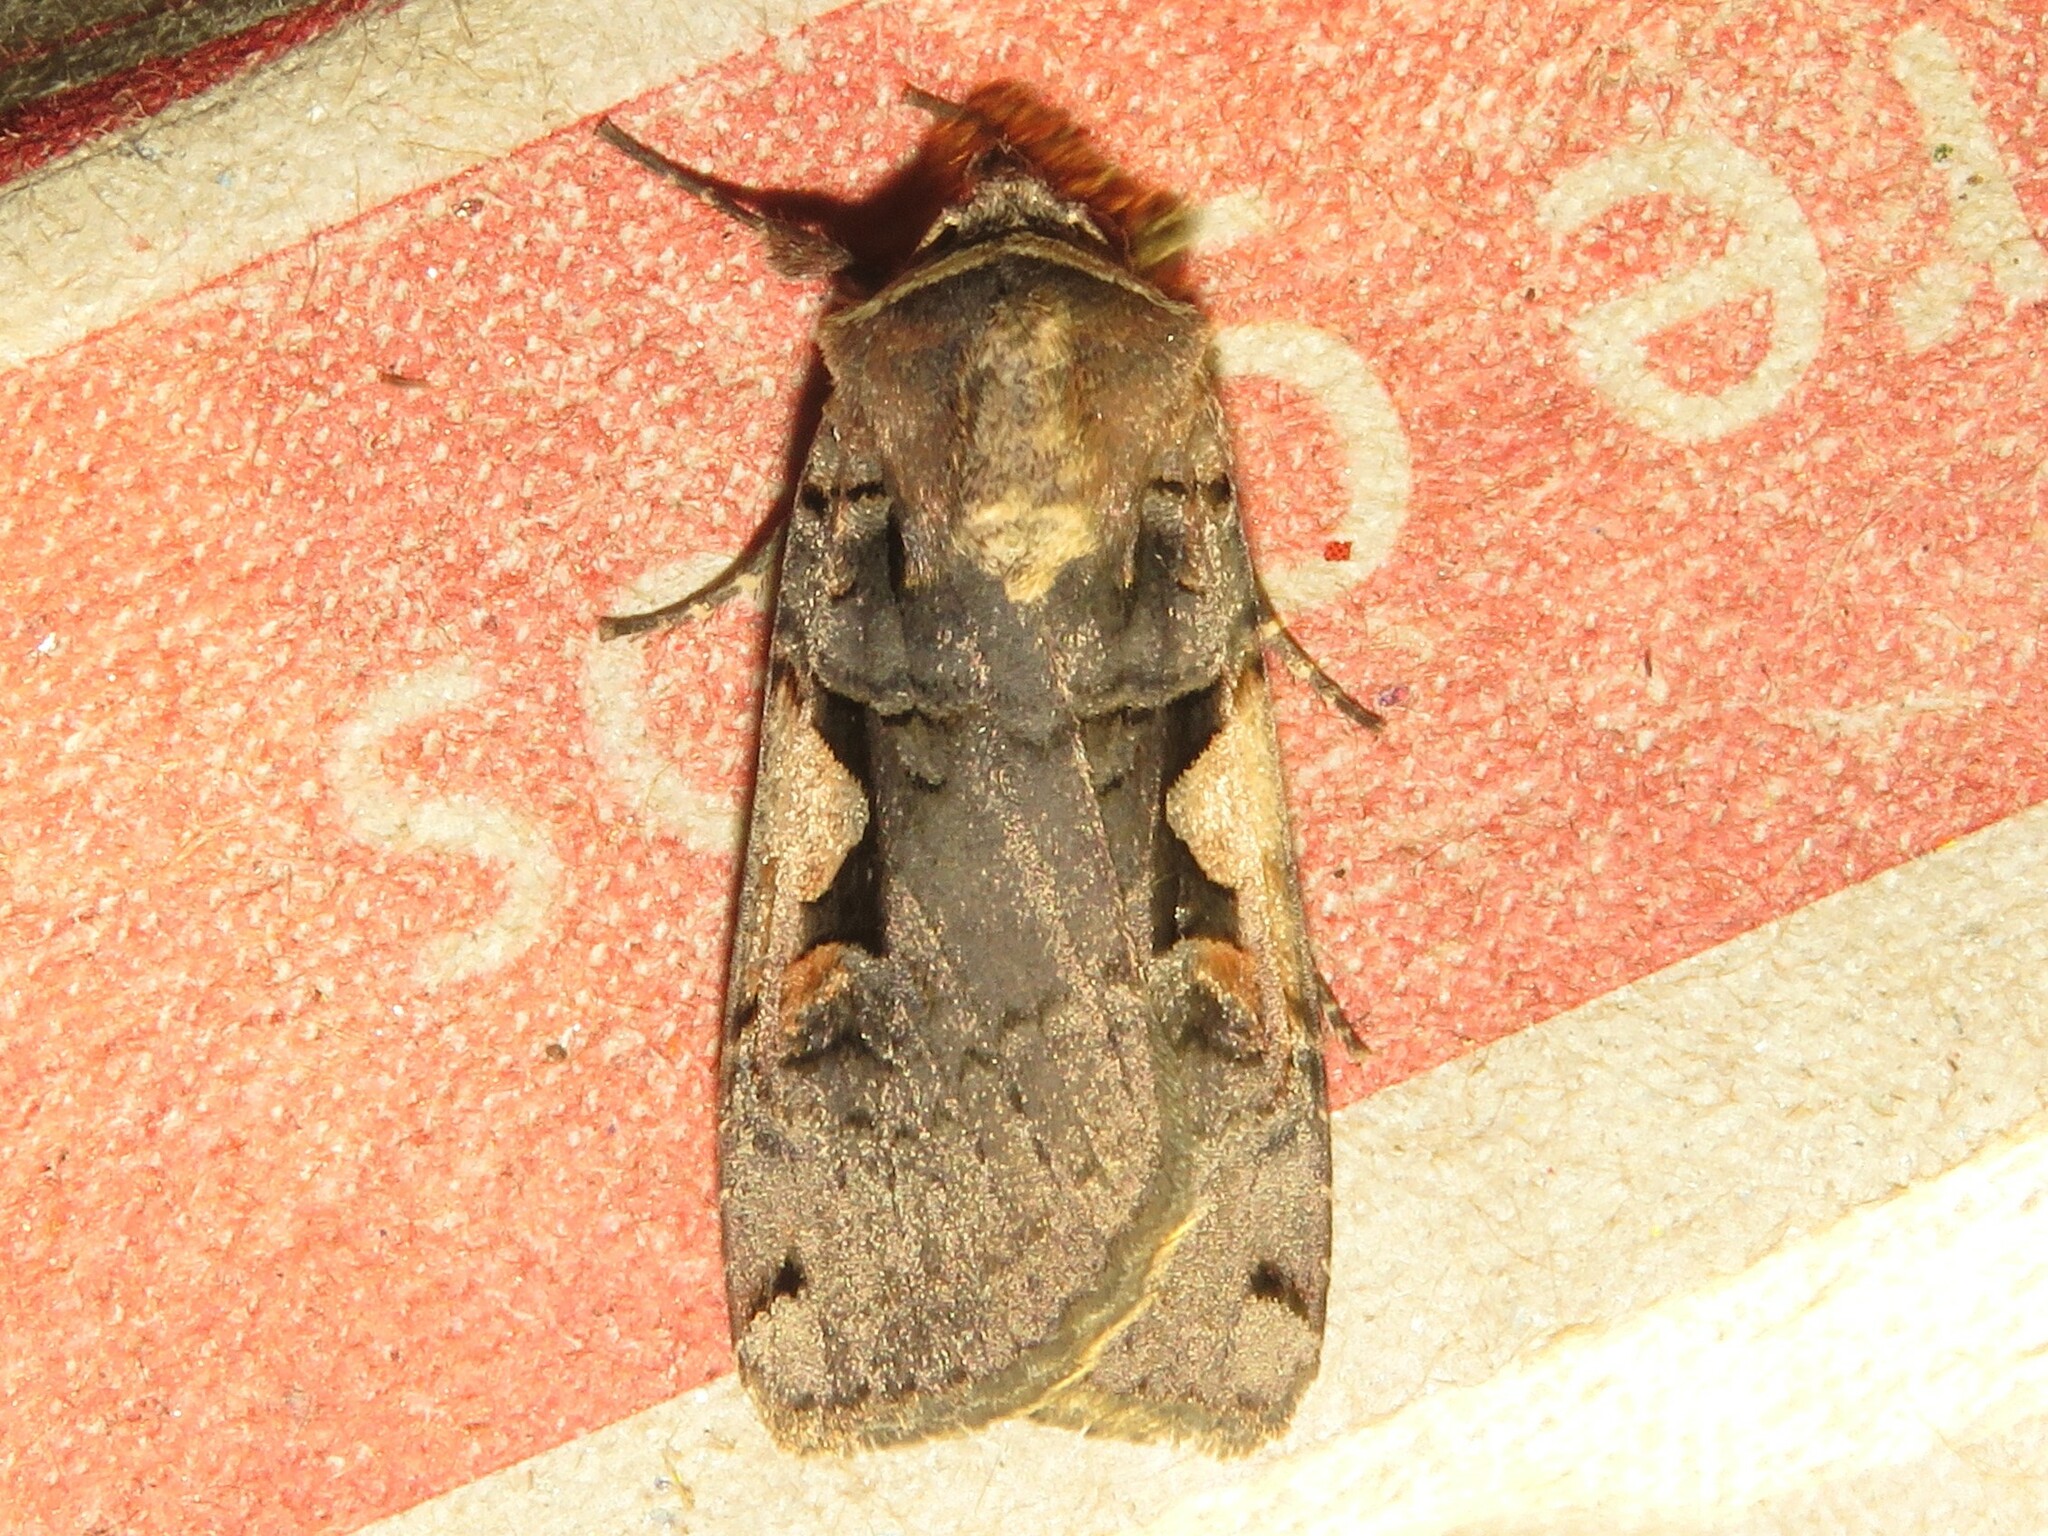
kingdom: Animalia
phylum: Arthropoda
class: Insecta
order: Lepidoptera
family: Noctuidae
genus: Xestia
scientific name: Xestia
